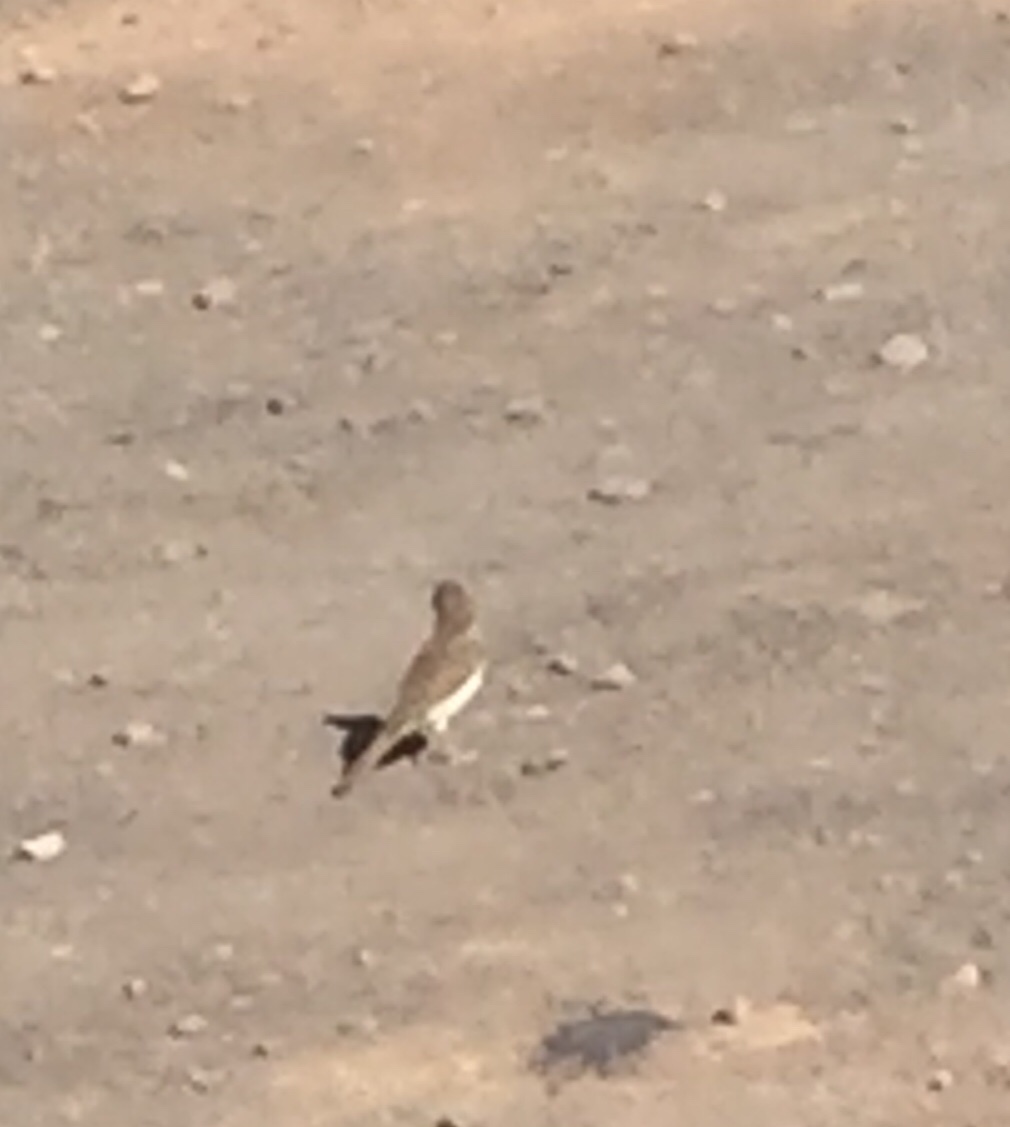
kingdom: Animalia
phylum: Chordata
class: Aves
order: Passeriformes
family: Motacillidae
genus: Anthus
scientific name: Anthus berthelotii
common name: Berthelot's pipit
